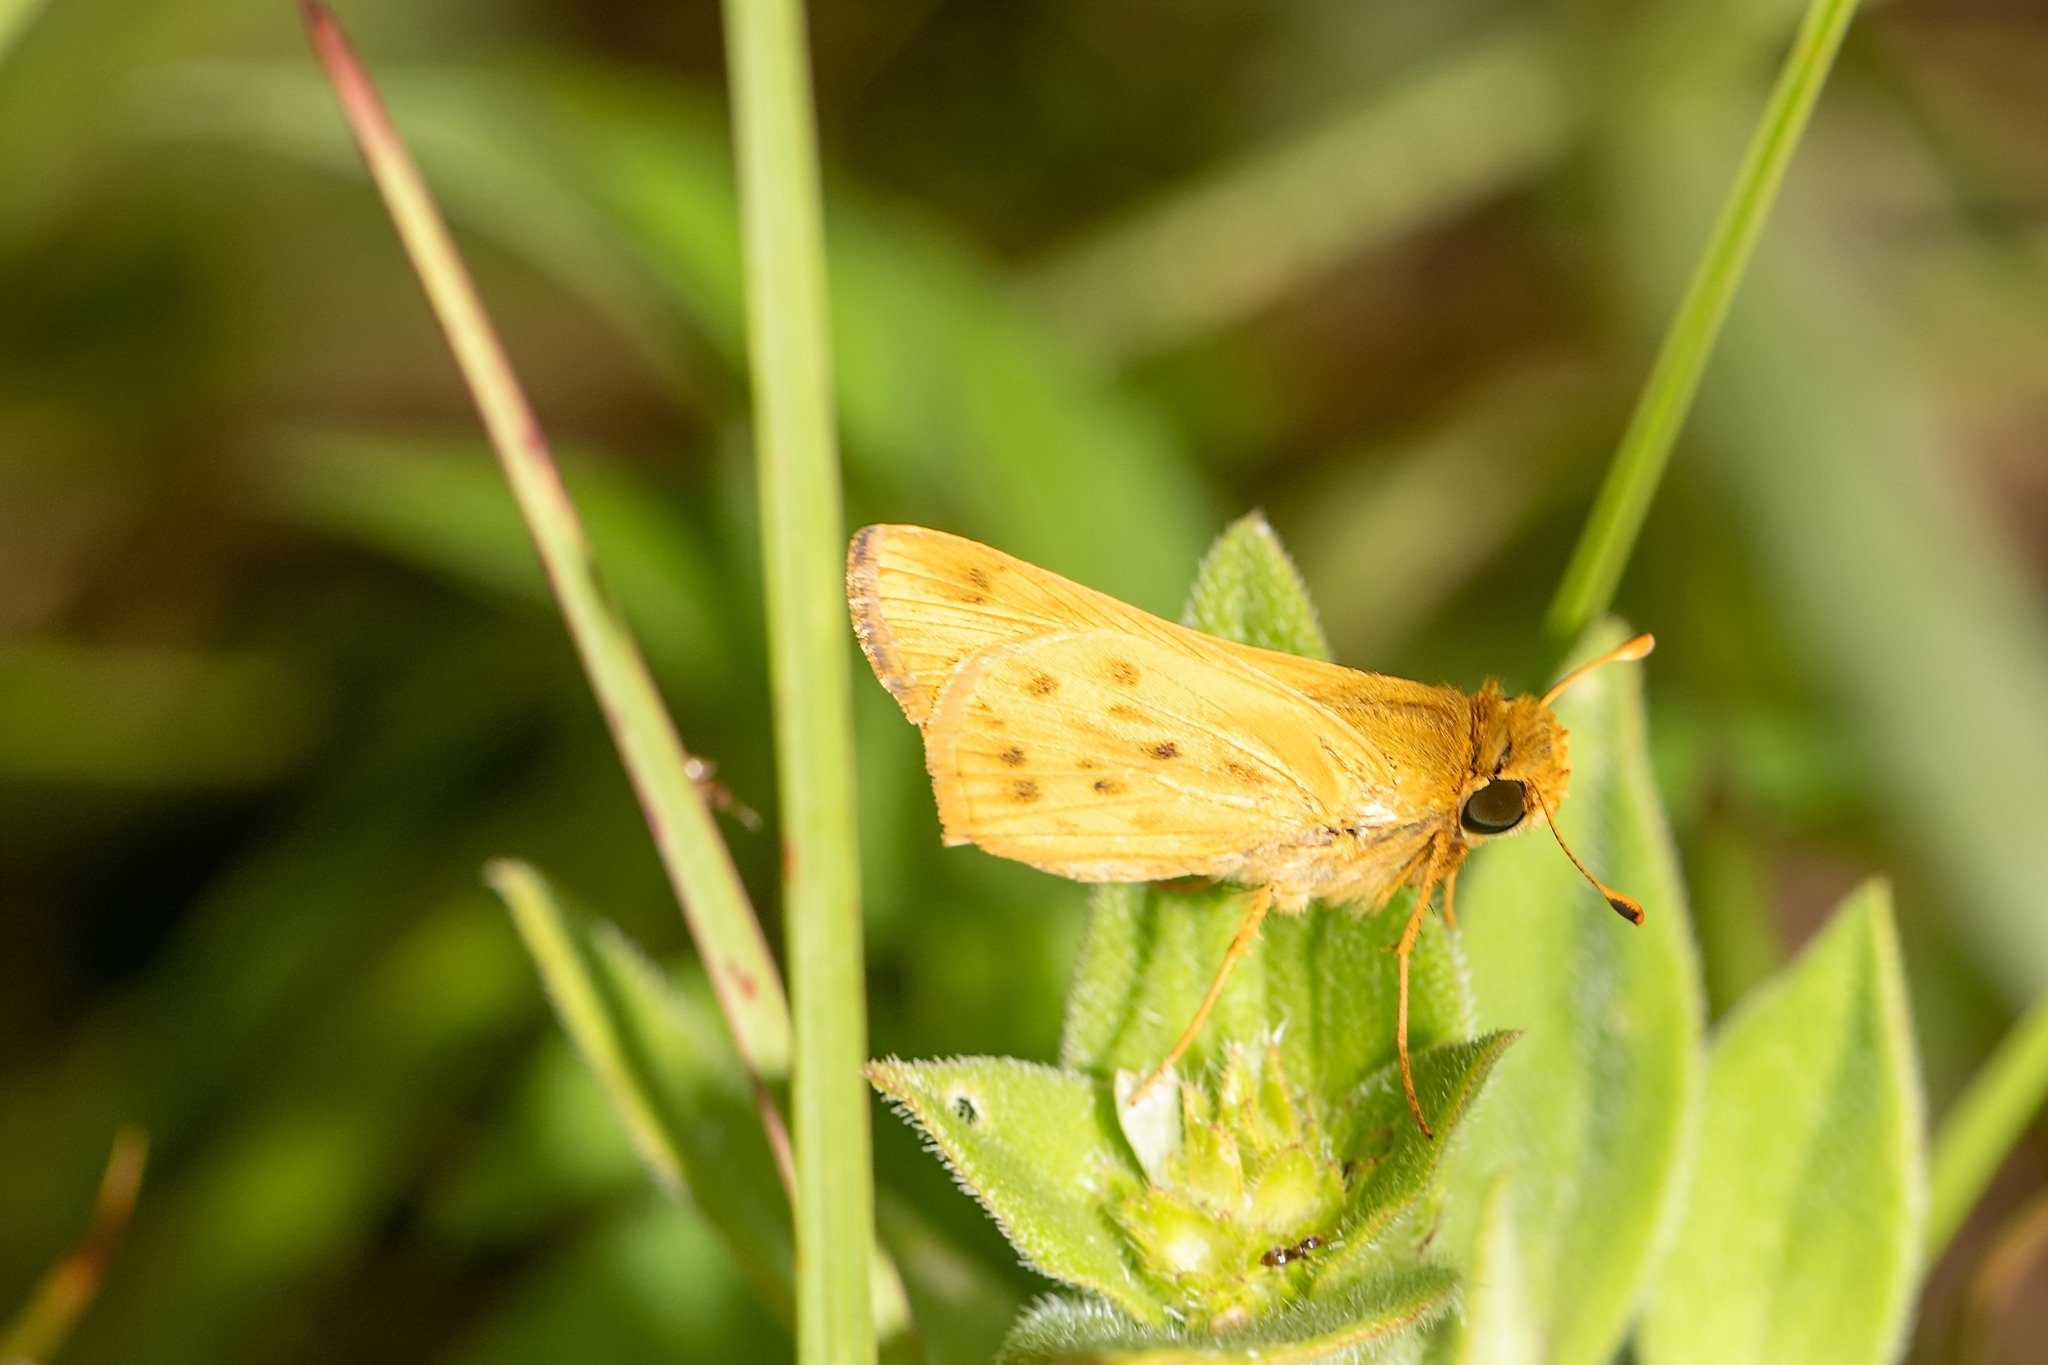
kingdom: Animalia
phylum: Arthropoda
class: Insecta
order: Lepidoptera
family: Hesperiidae
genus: Hylephila
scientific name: Hylephila phyleus
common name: Fiery skipper
